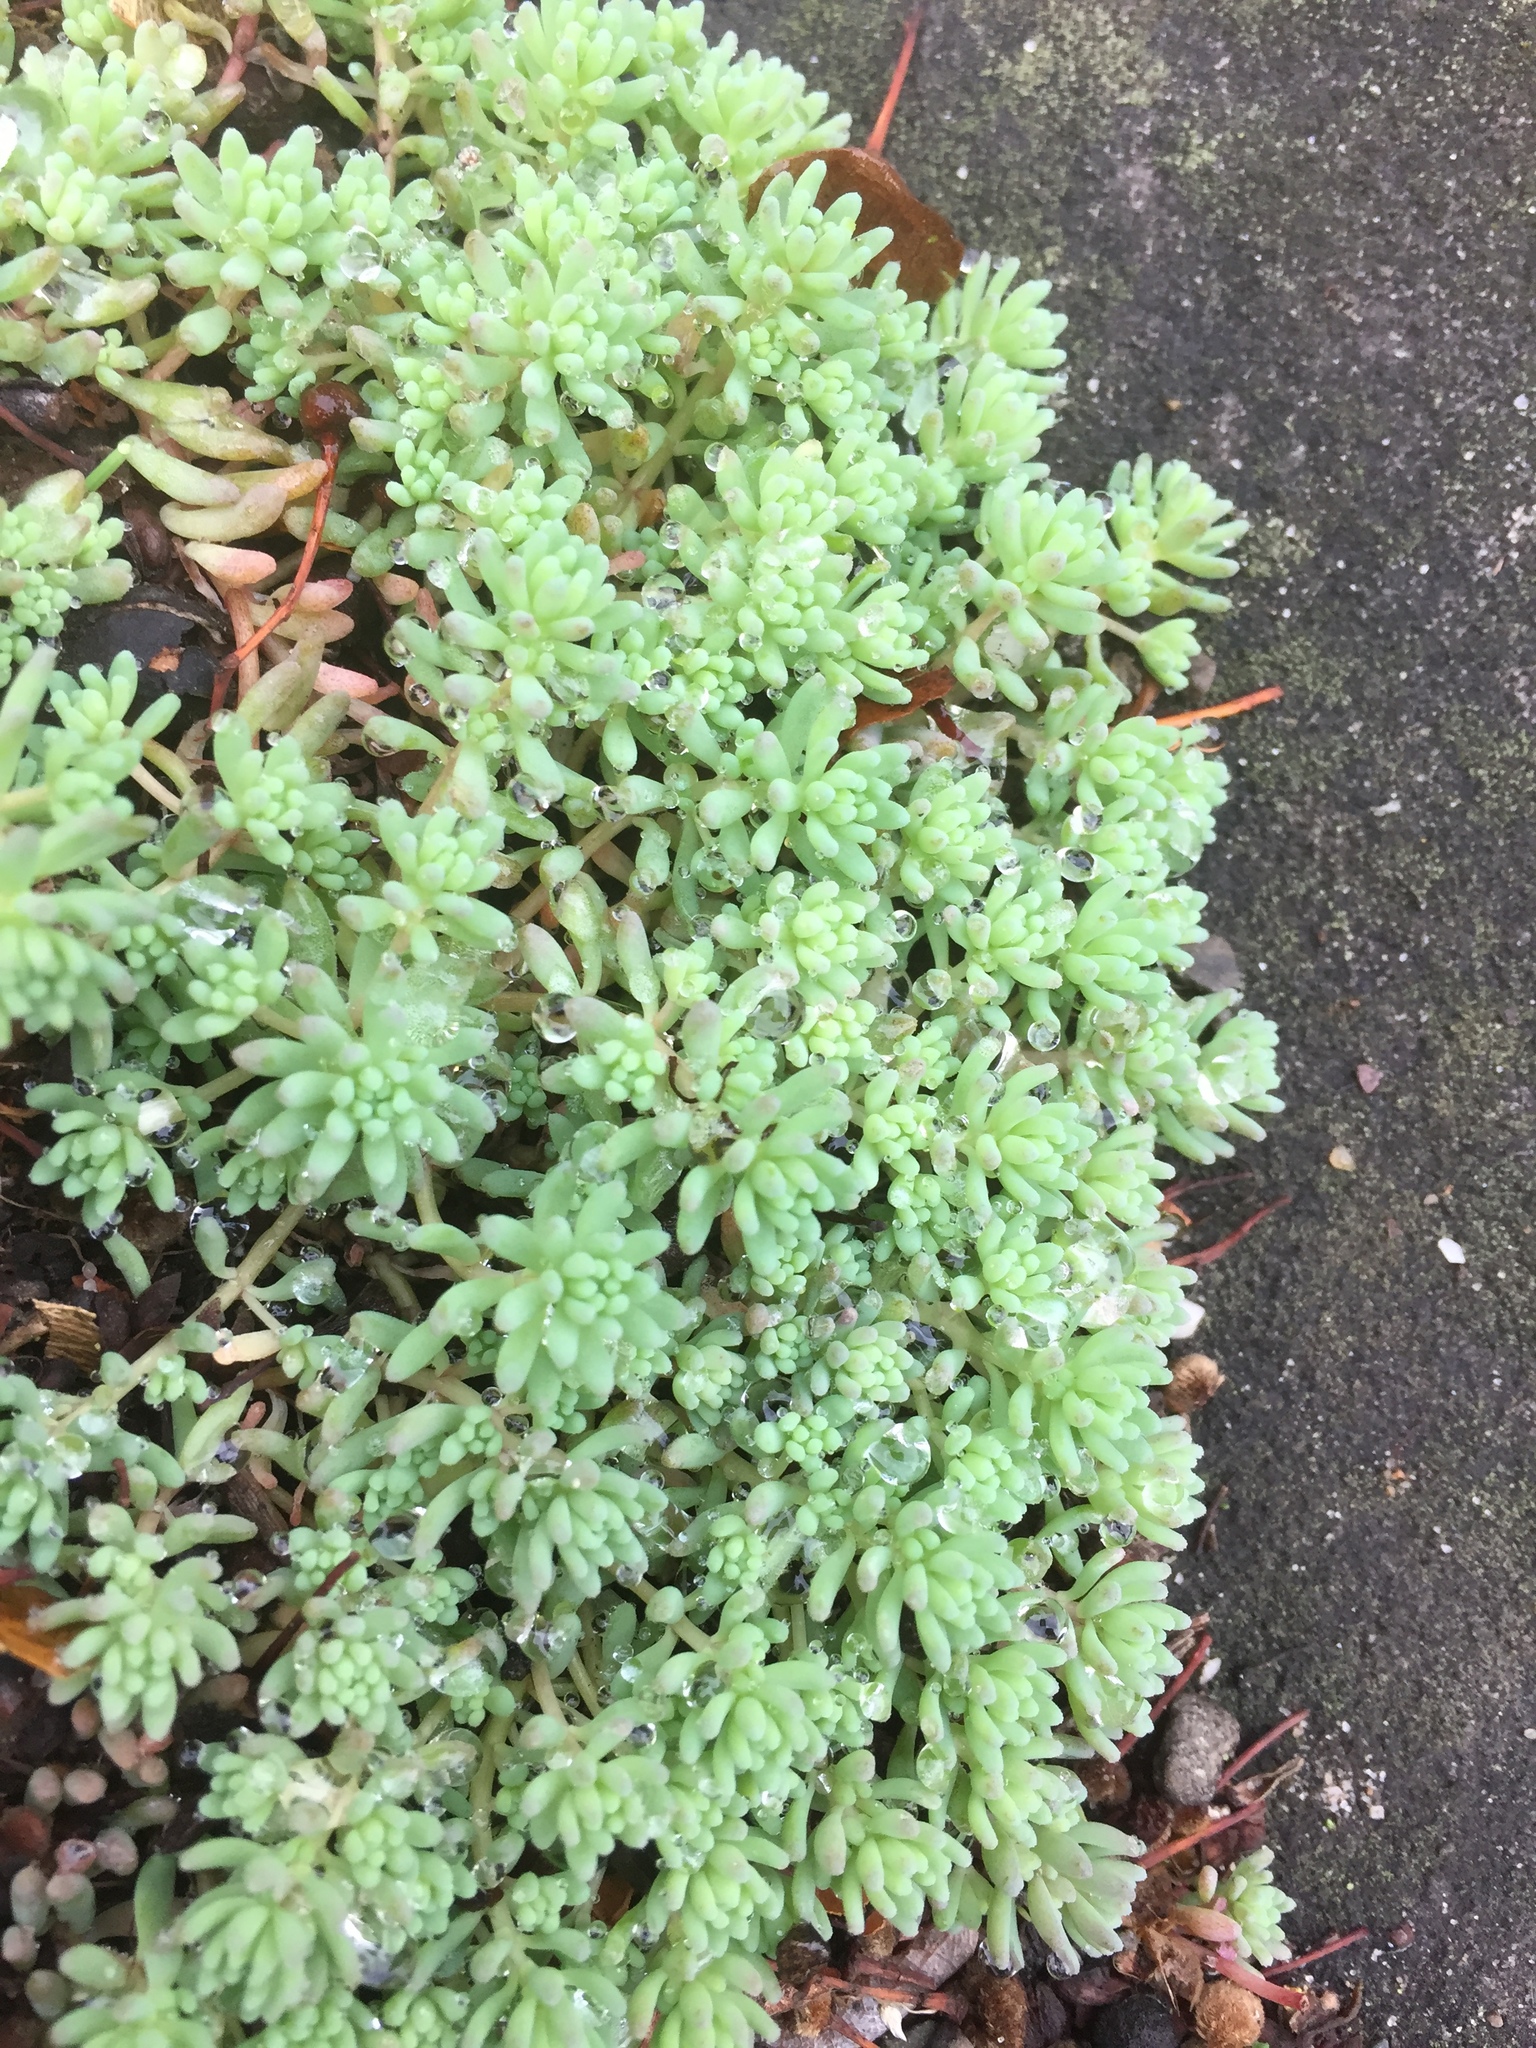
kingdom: Plantae
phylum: Tracheophyta
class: Magnoliopsida
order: Saxifragales
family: Crassulaceae
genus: Sedum
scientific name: Sedum hispanicum
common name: Spanish stonecrop
